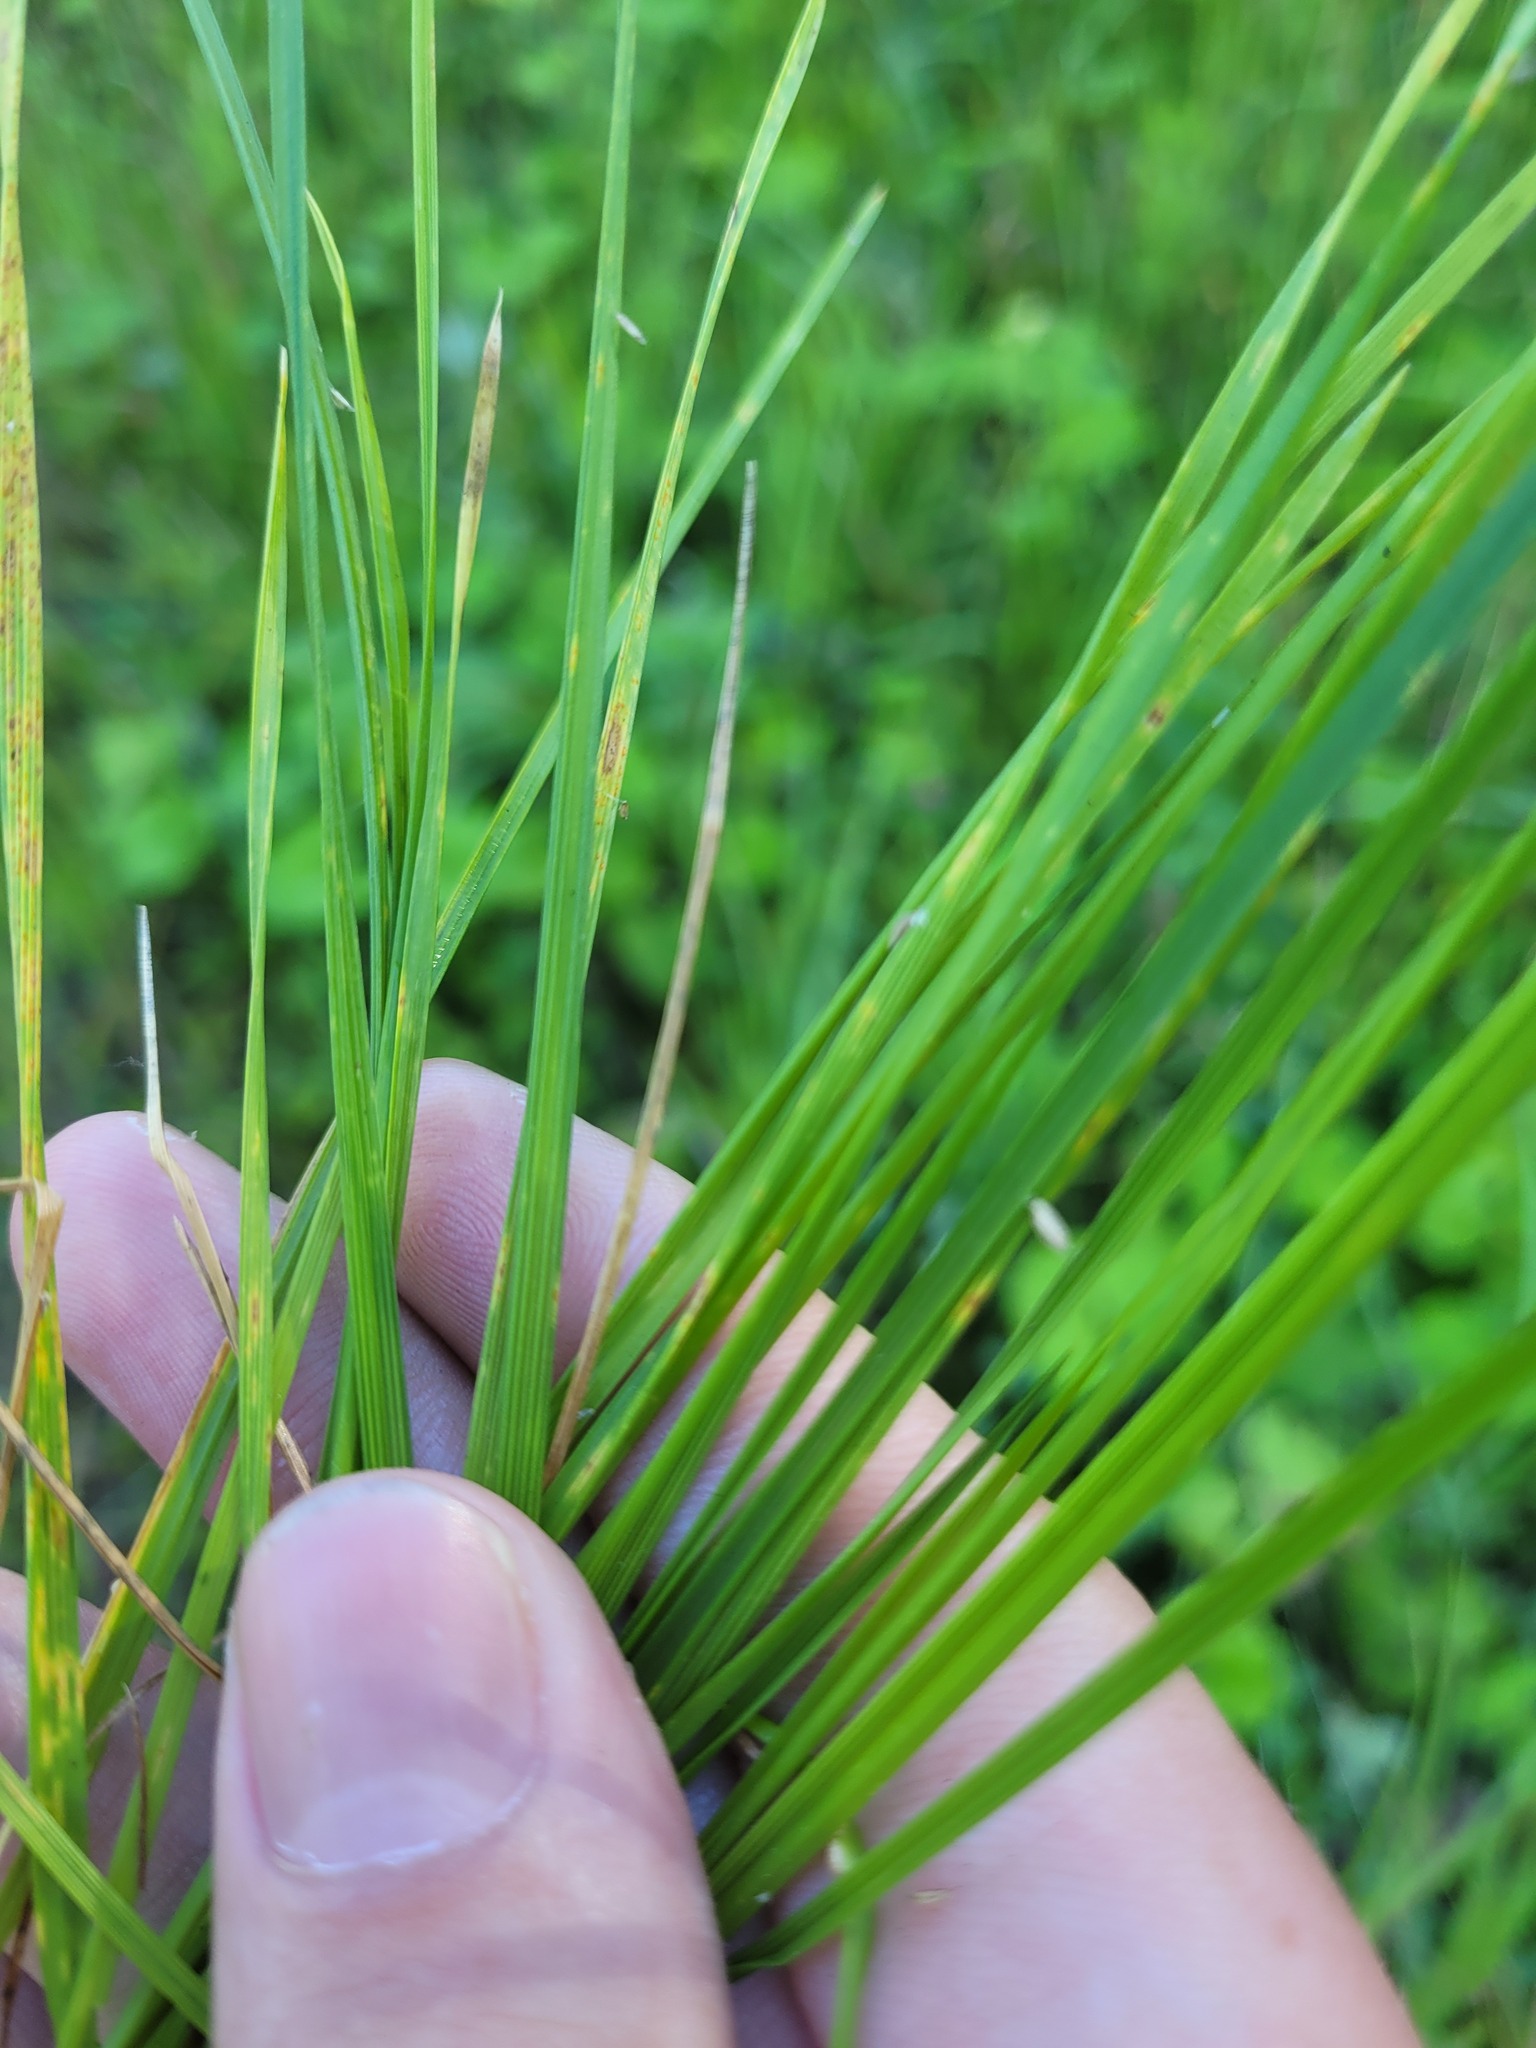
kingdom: Plantae
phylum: Tracheophyta
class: Liliopsida
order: Poales
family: Poaceae
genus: Deschampsia
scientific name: Deschampsia cespitosa
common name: Tufted hair-grass
